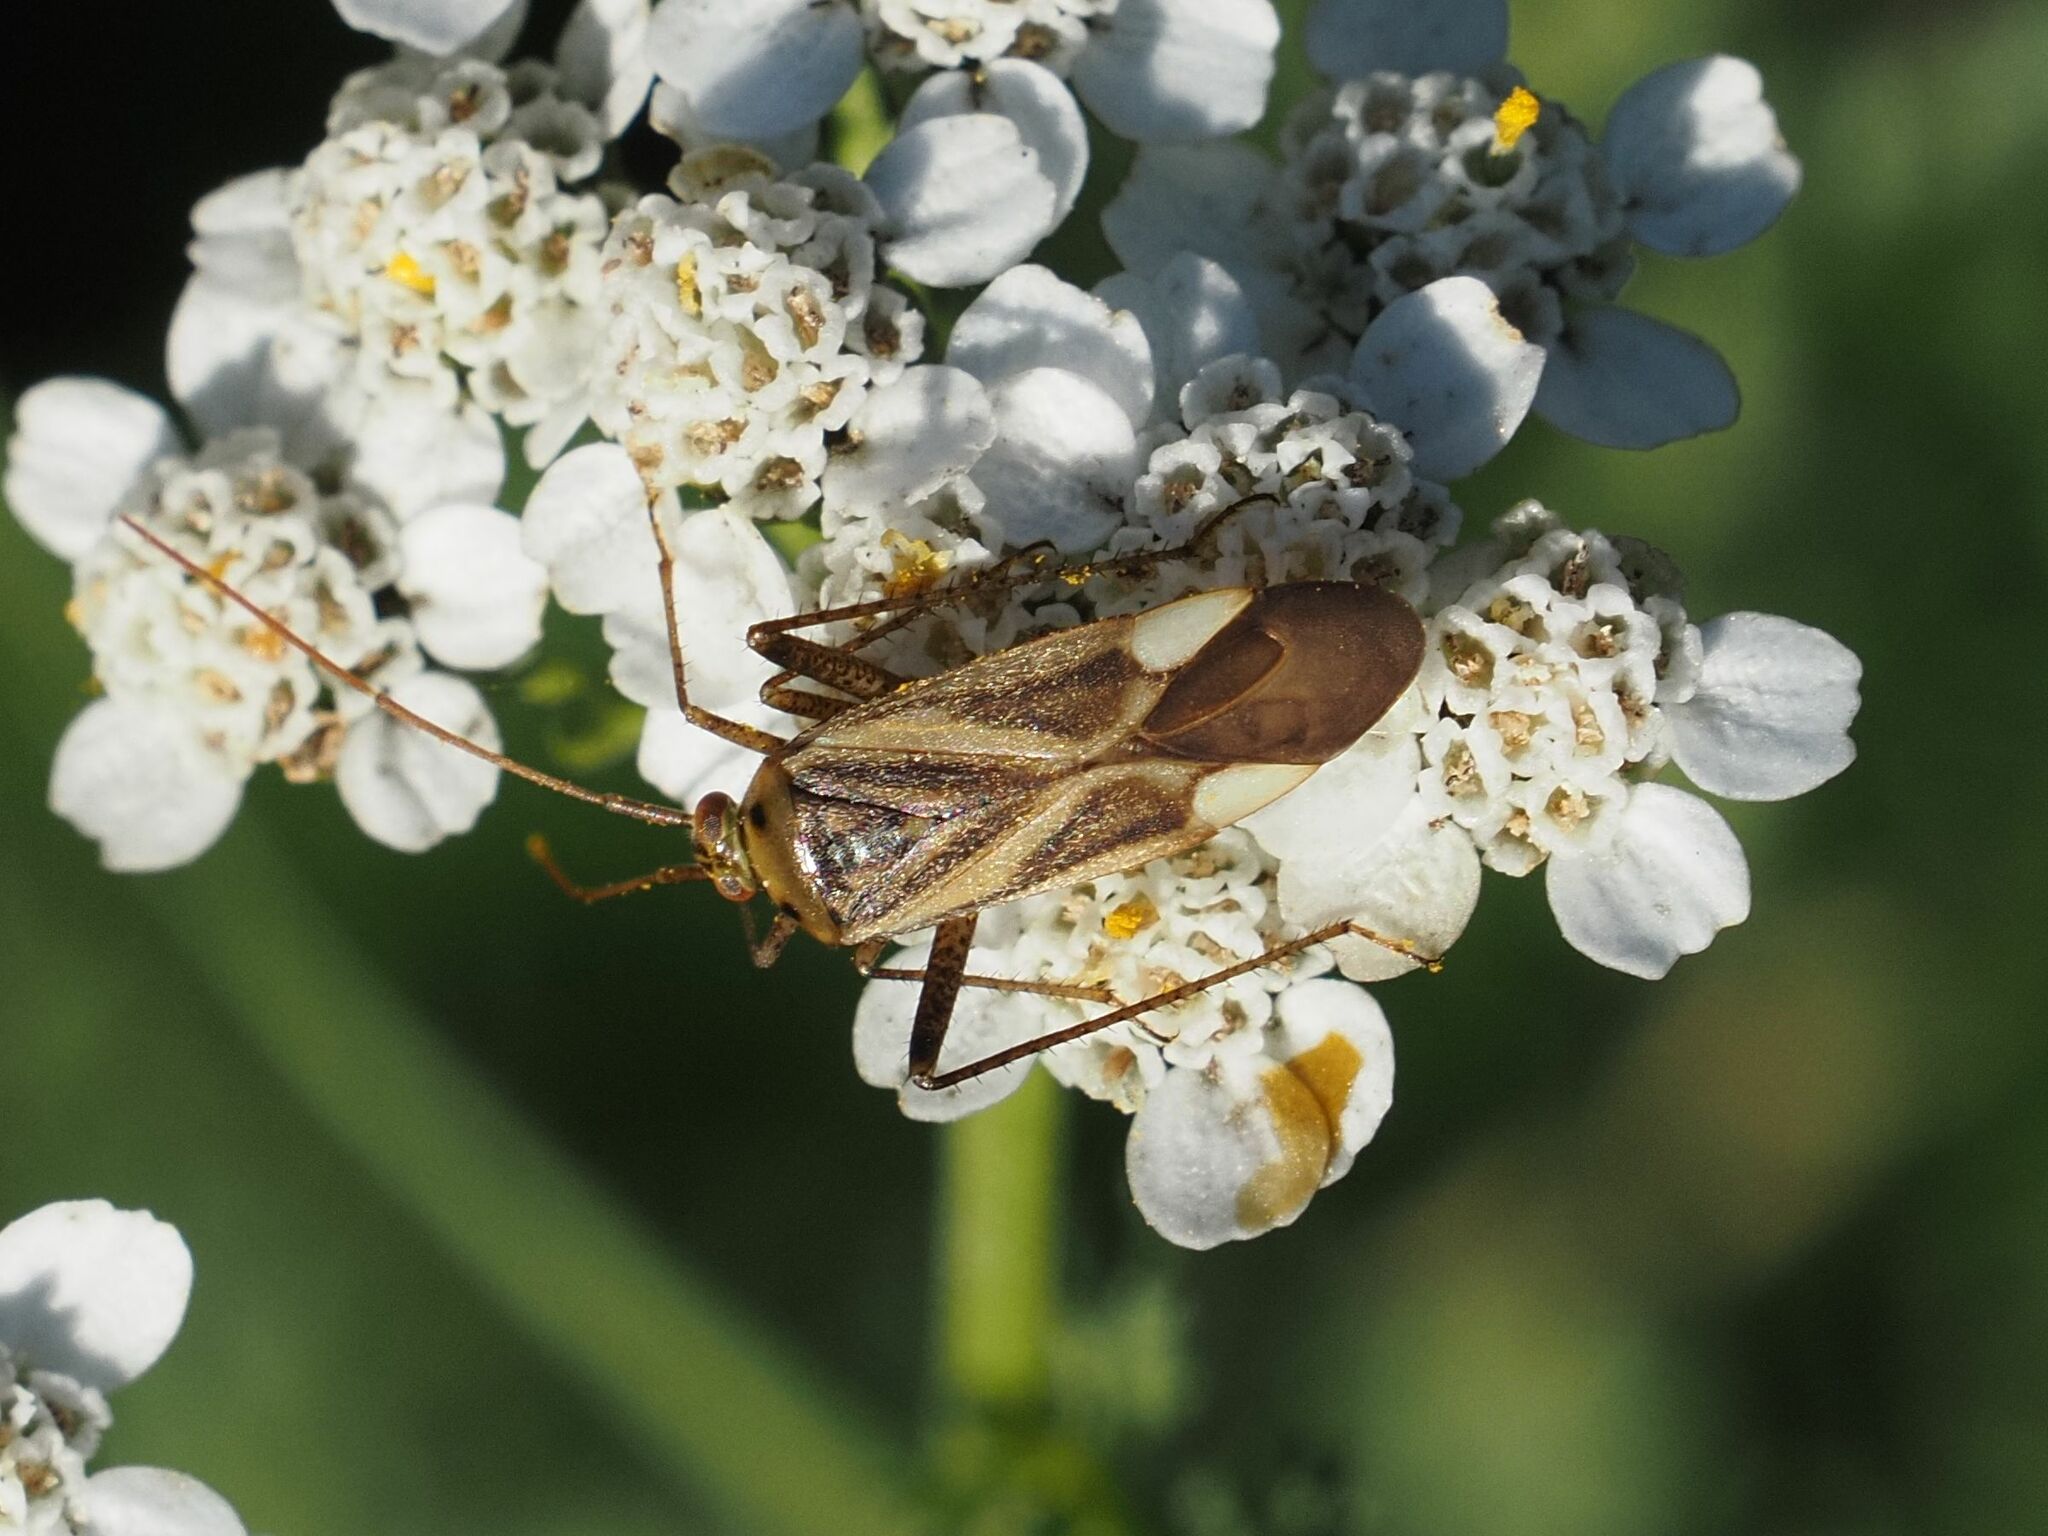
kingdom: Animalia
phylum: Arthropoda
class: Insecta
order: Hemiptera
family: Miridae
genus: Adelphocoris
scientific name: Adelphocoris lineolatus
